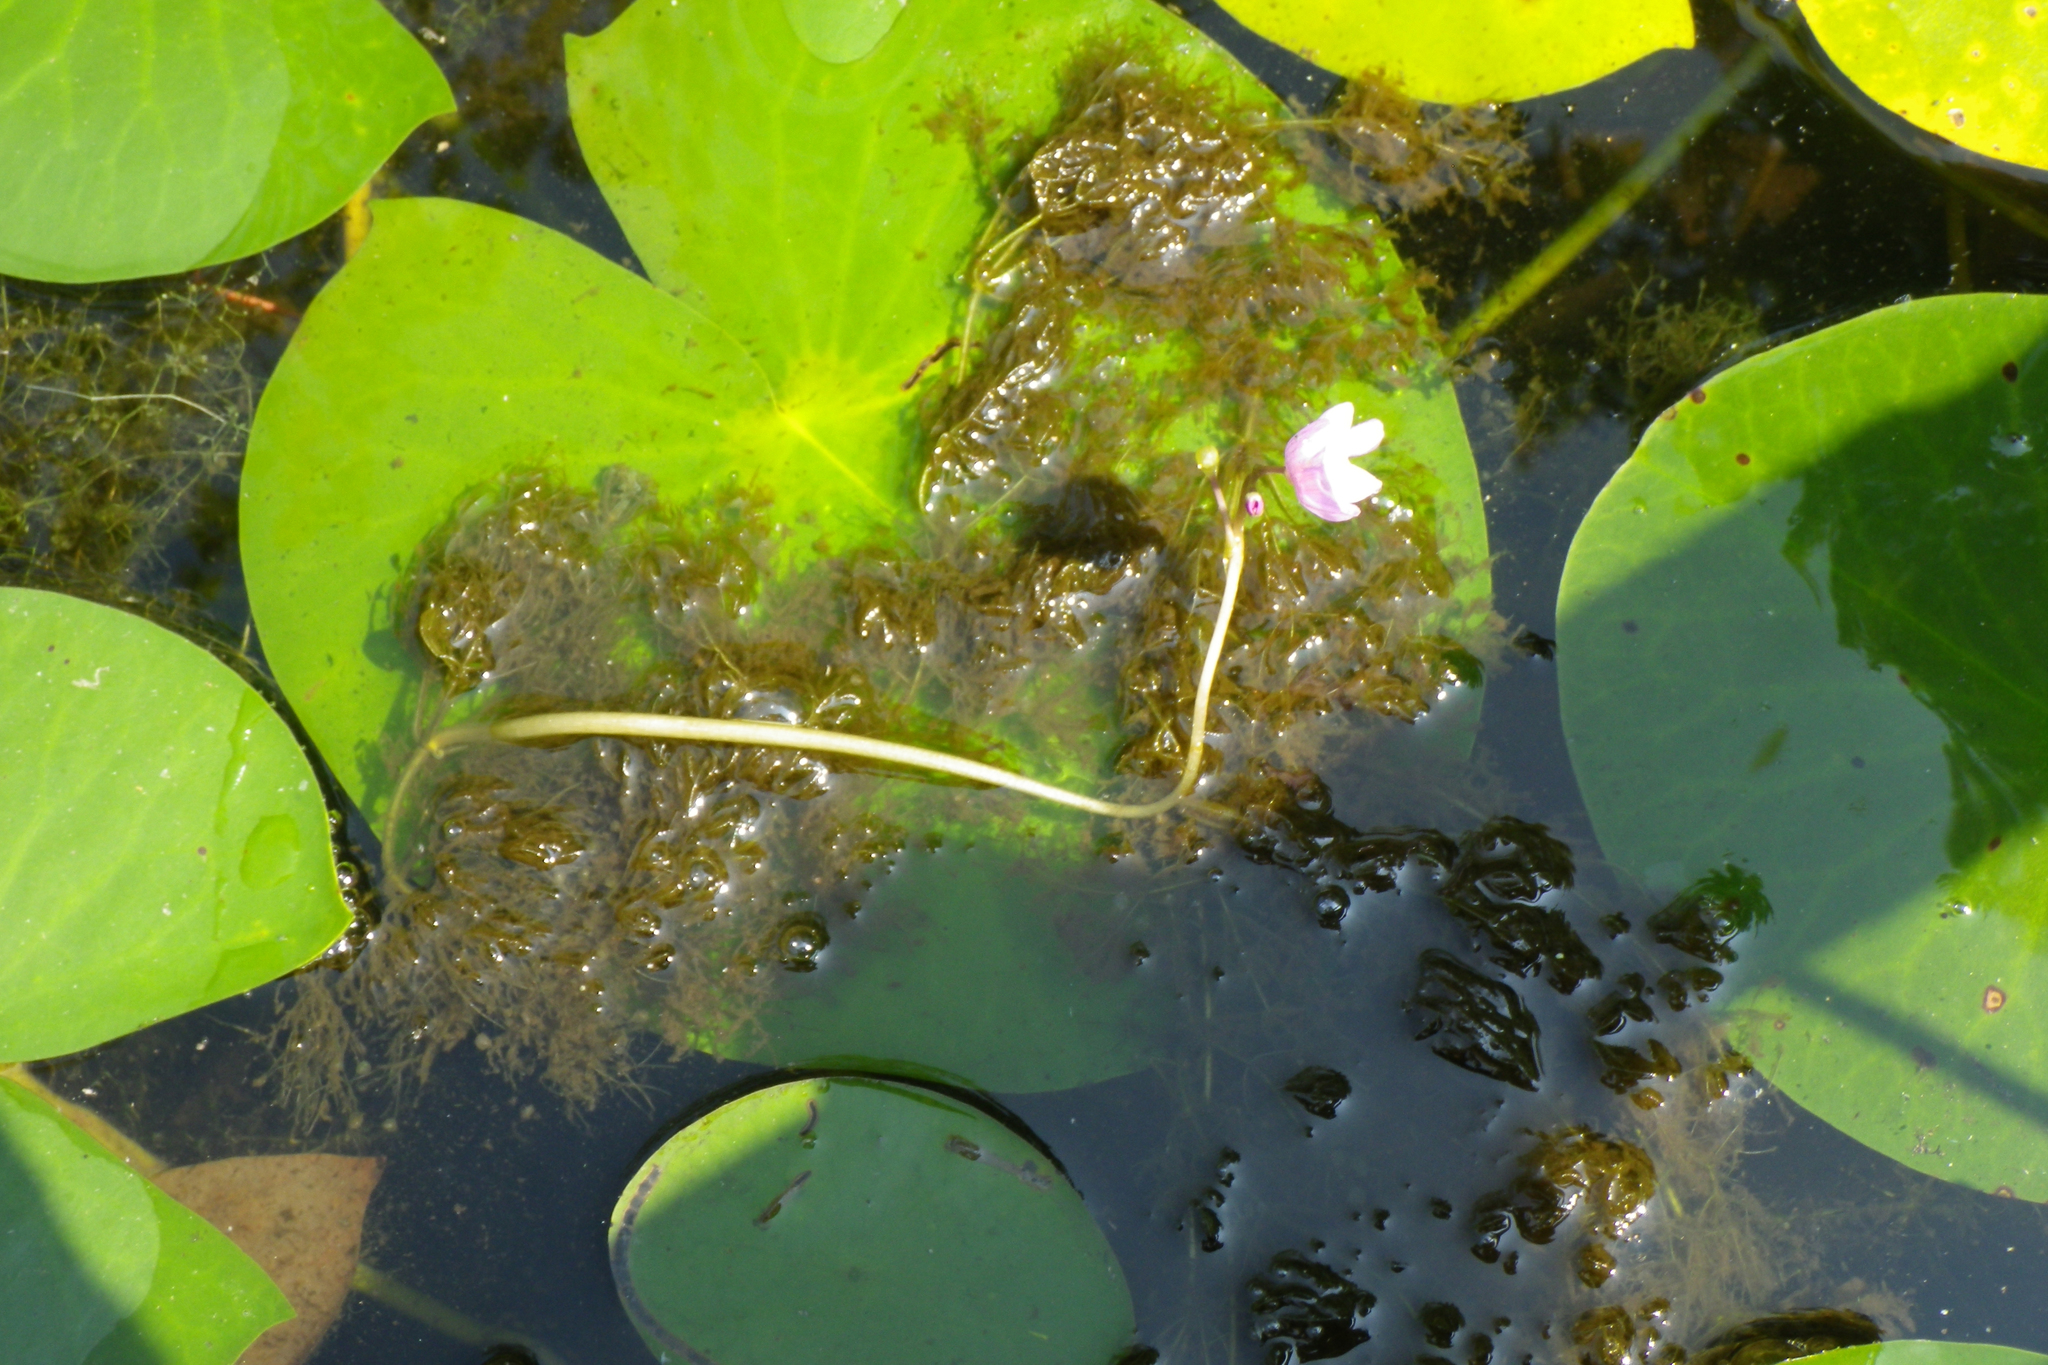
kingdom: Plantae
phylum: Tracheophyta
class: Magnoliopsida
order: Lamiales
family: Lentibulariaceae
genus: Utricularia
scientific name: Utricularia purpurea
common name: Eastern purple bladderwort
